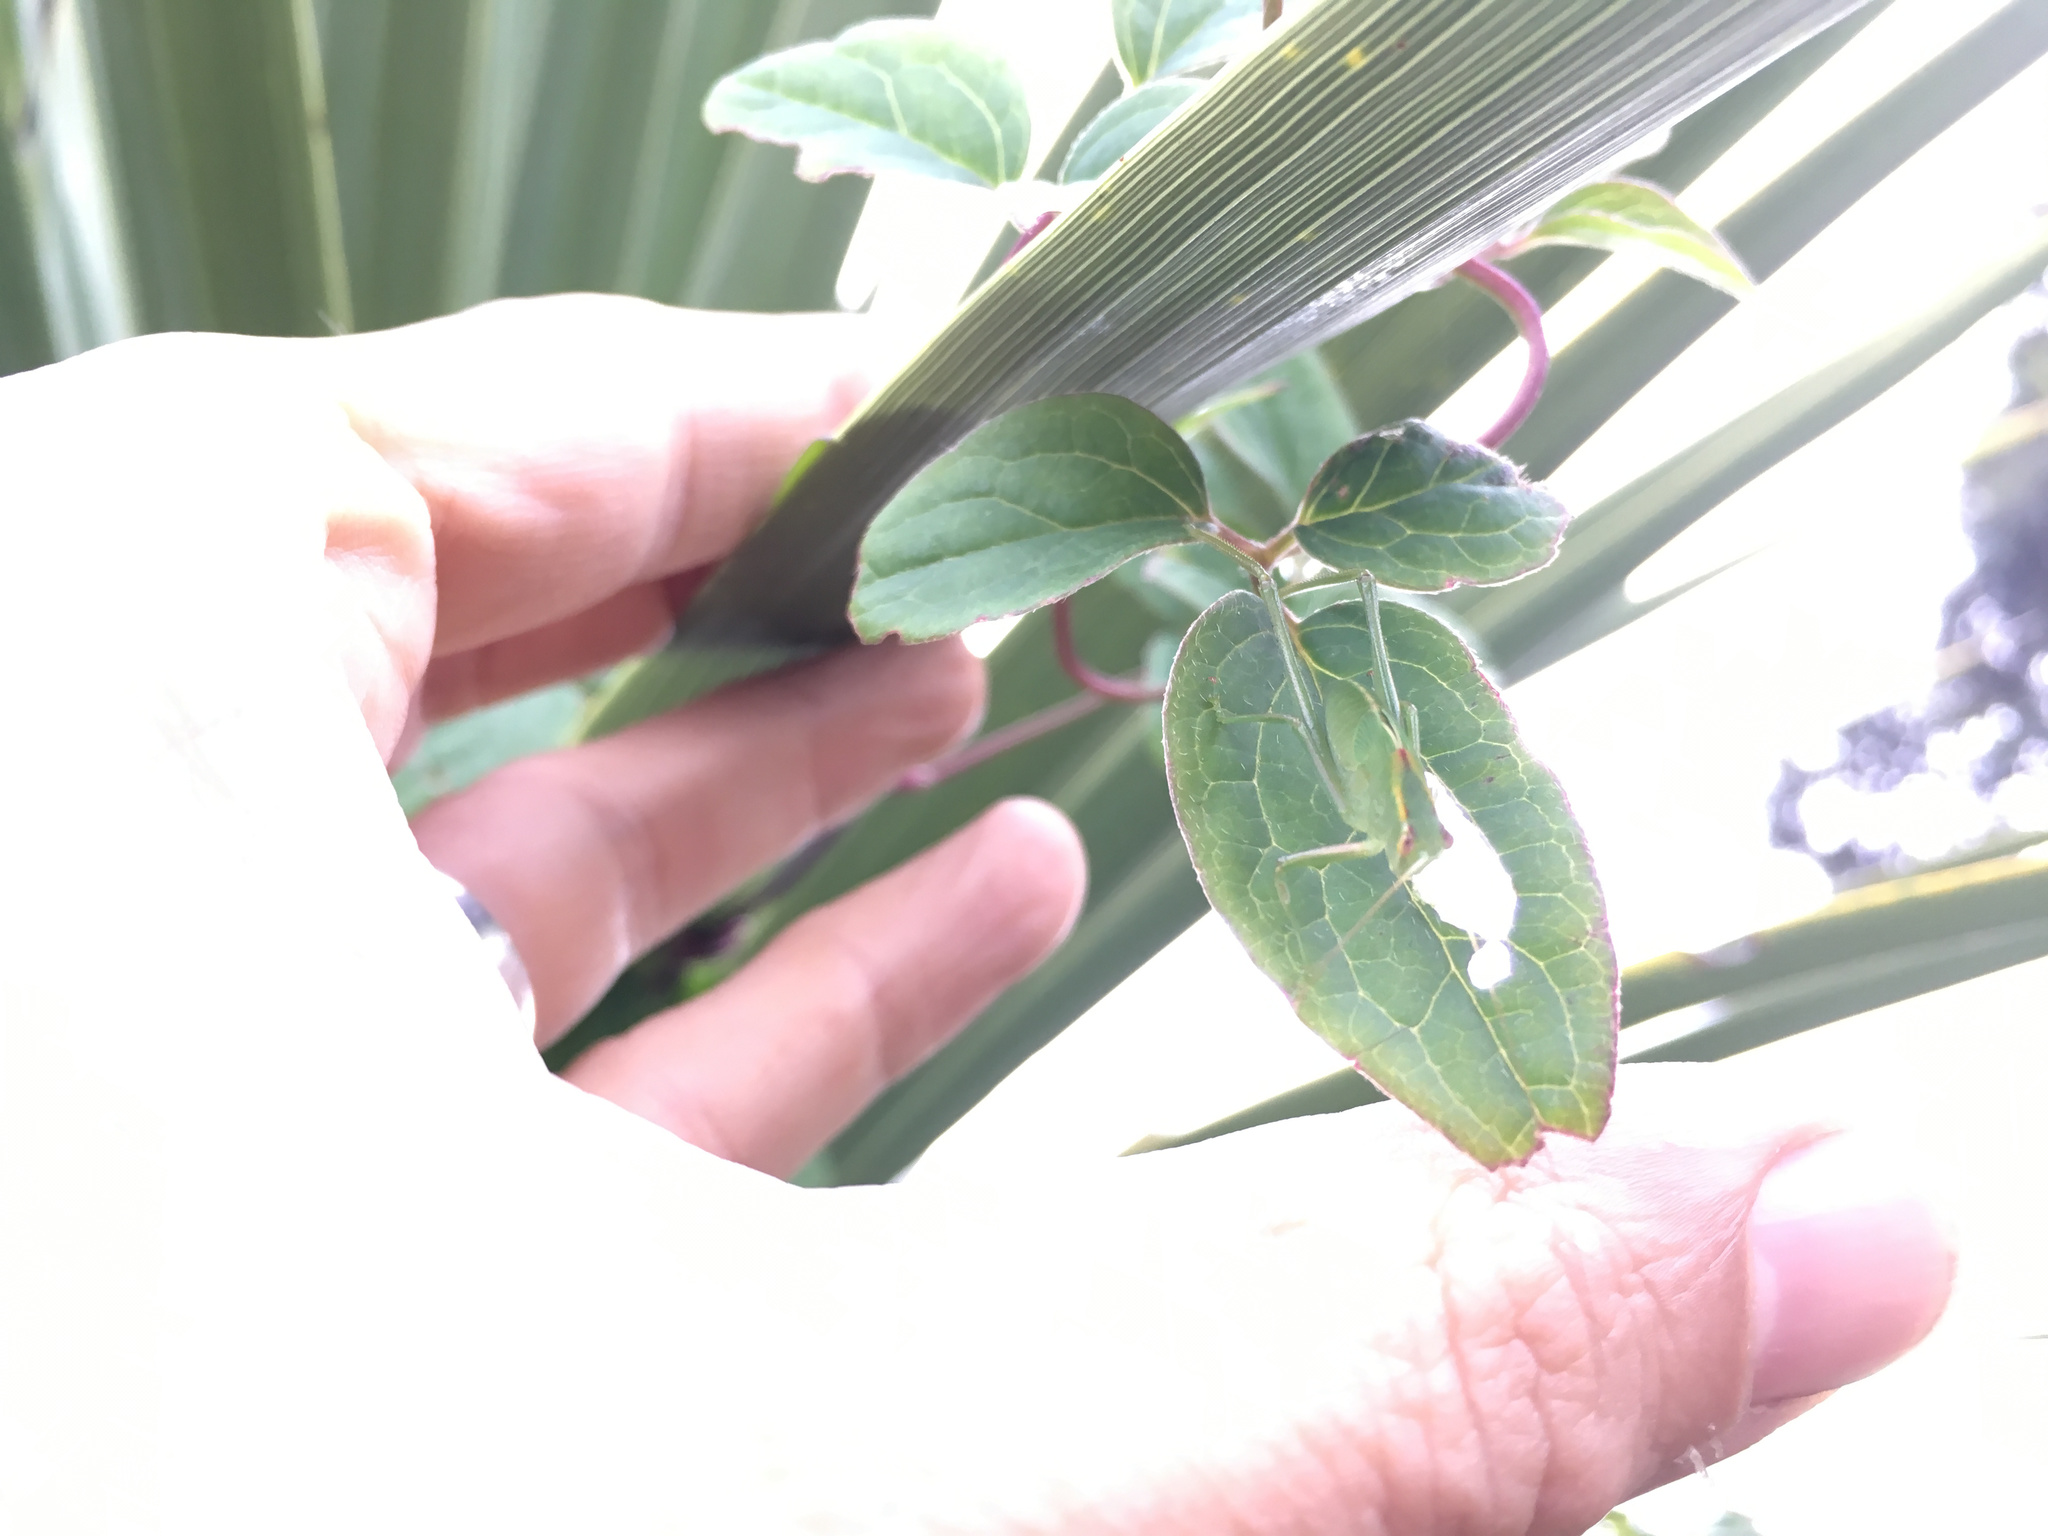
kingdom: Animalia
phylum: Arthropoda
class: Insecta
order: Orthoptera
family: Tettigoniidae
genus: Caedicia
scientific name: Caedicia simplex
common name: Common garden katydid
